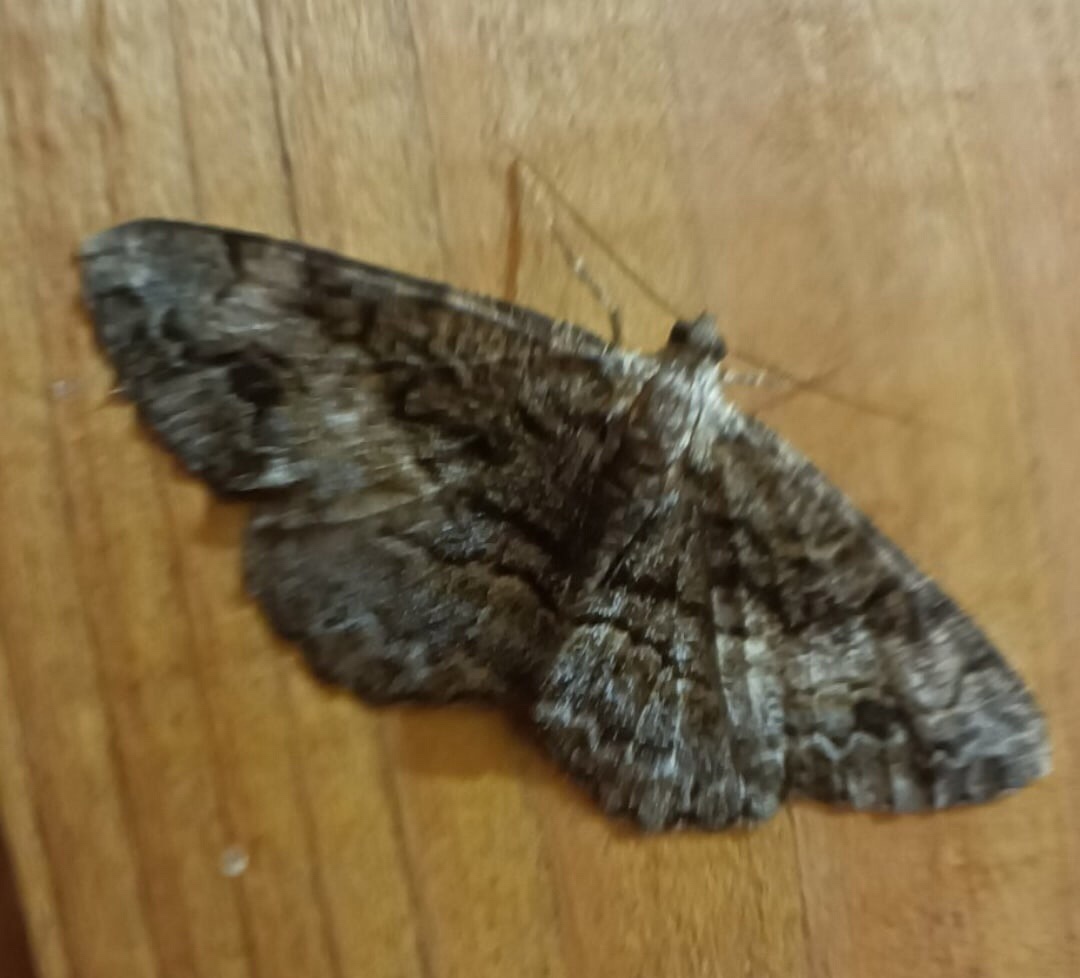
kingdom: Animalia
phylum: Arthropoda
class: Insecta
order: Lepidoptera
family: Geometridae
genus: Alcis
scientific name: Alcis deversata
